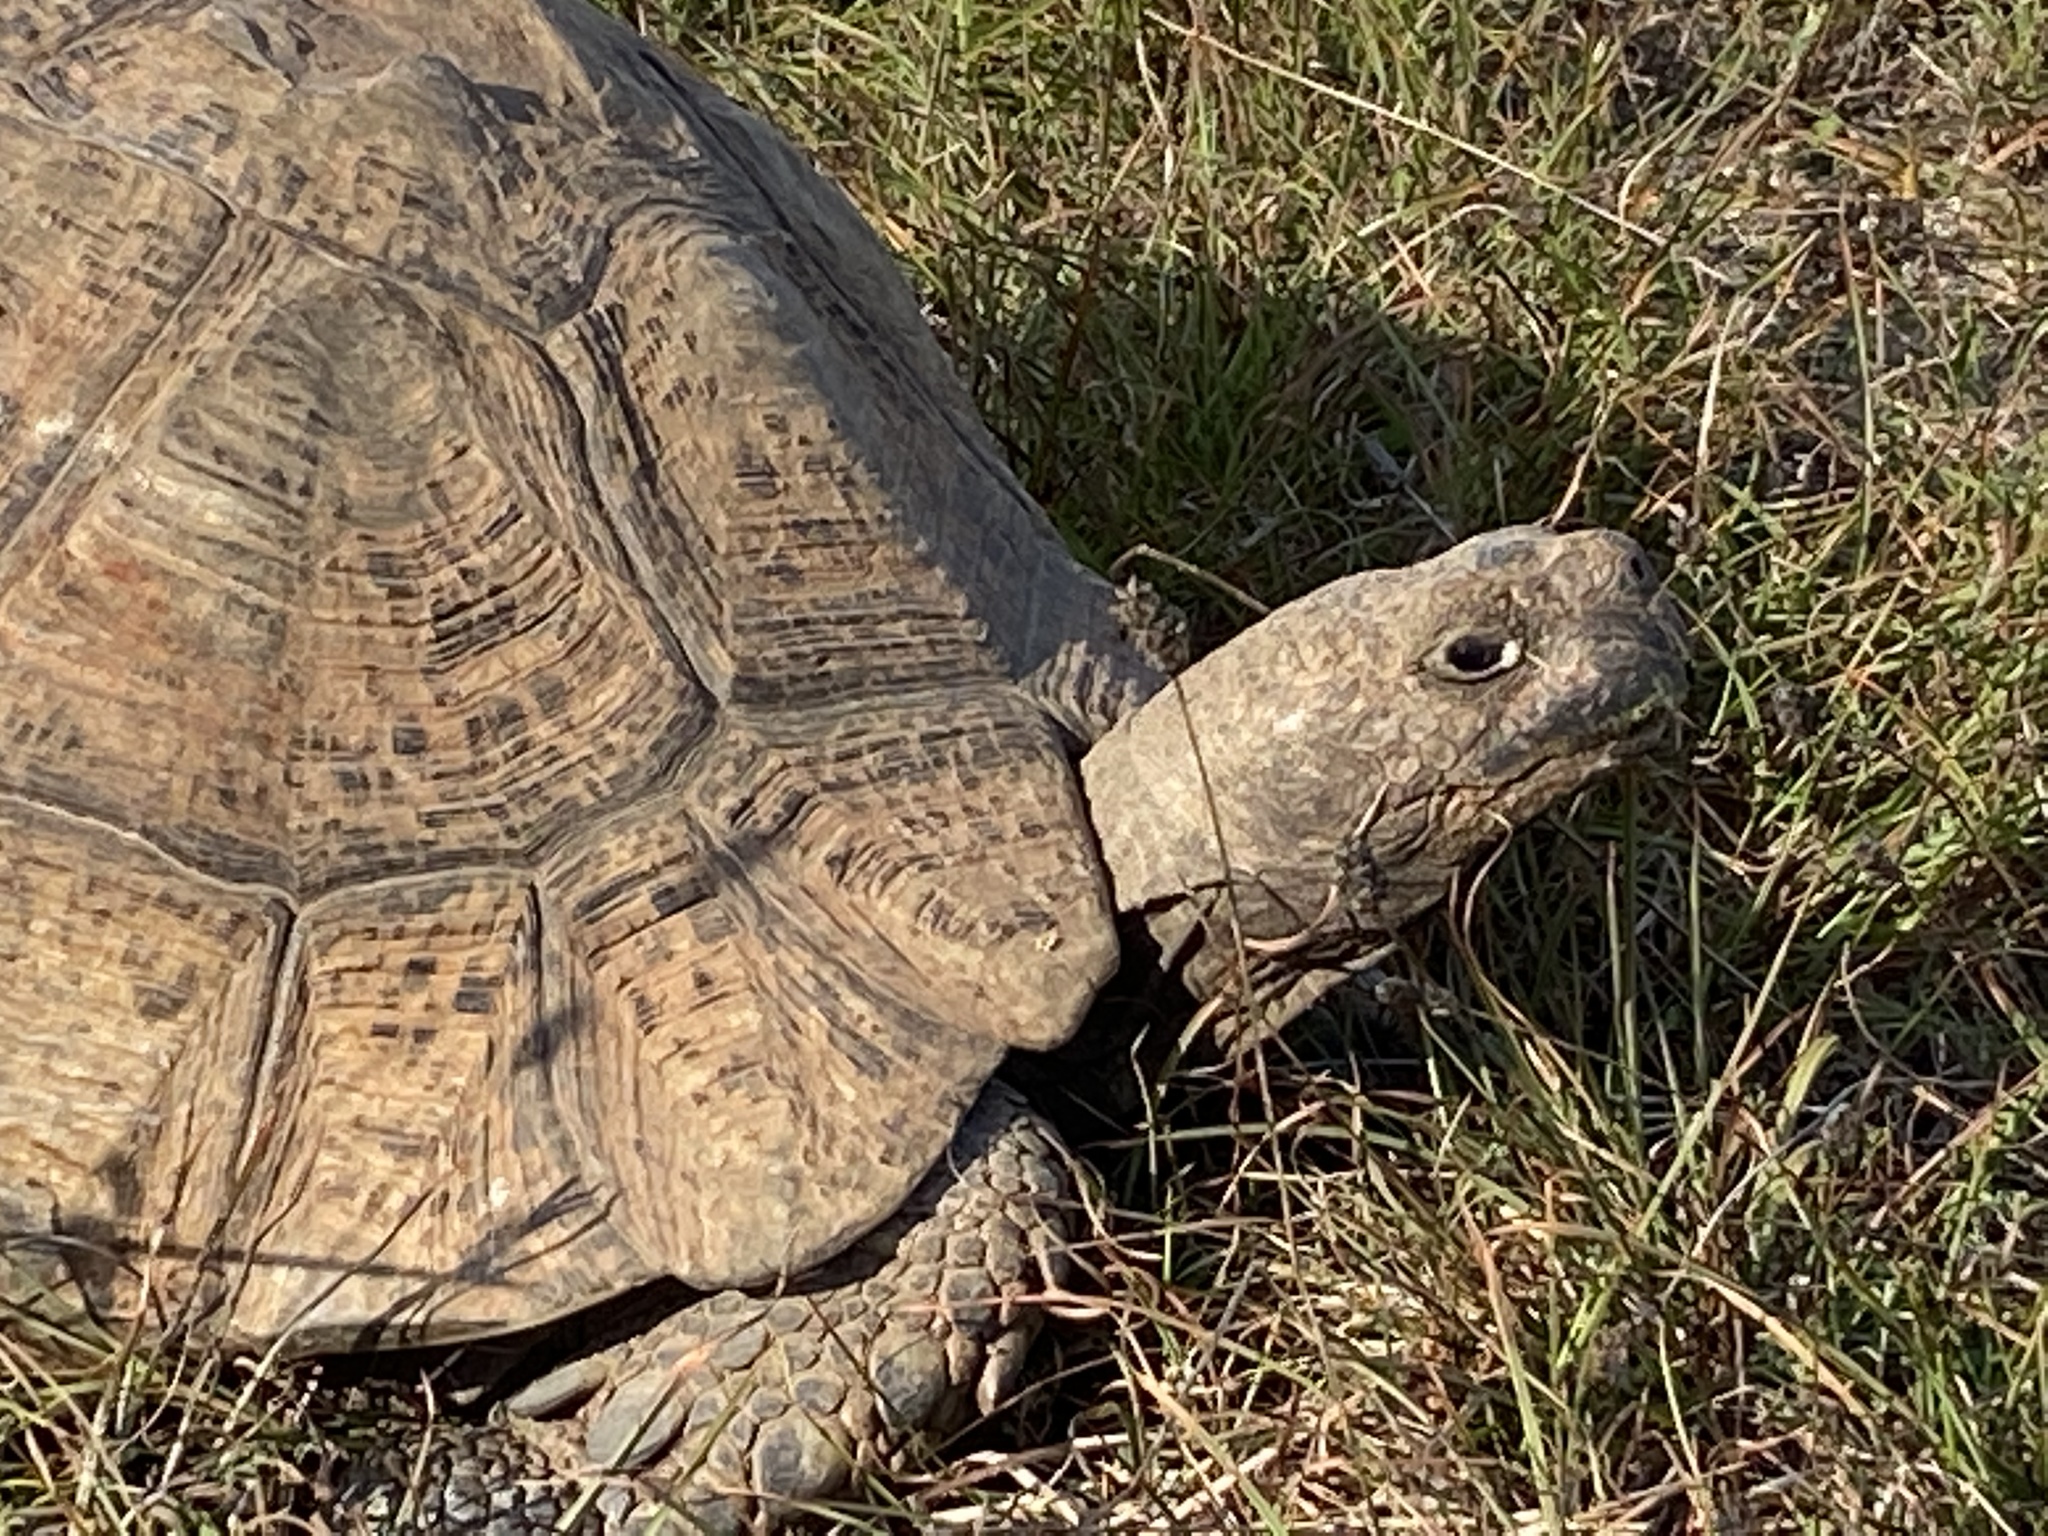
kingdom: Animalia
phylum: Chordata
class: Testudines
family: Testudinidae
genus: Stigmochelys
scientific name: Stigmochelys pardalis
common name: Leopard tortoise
